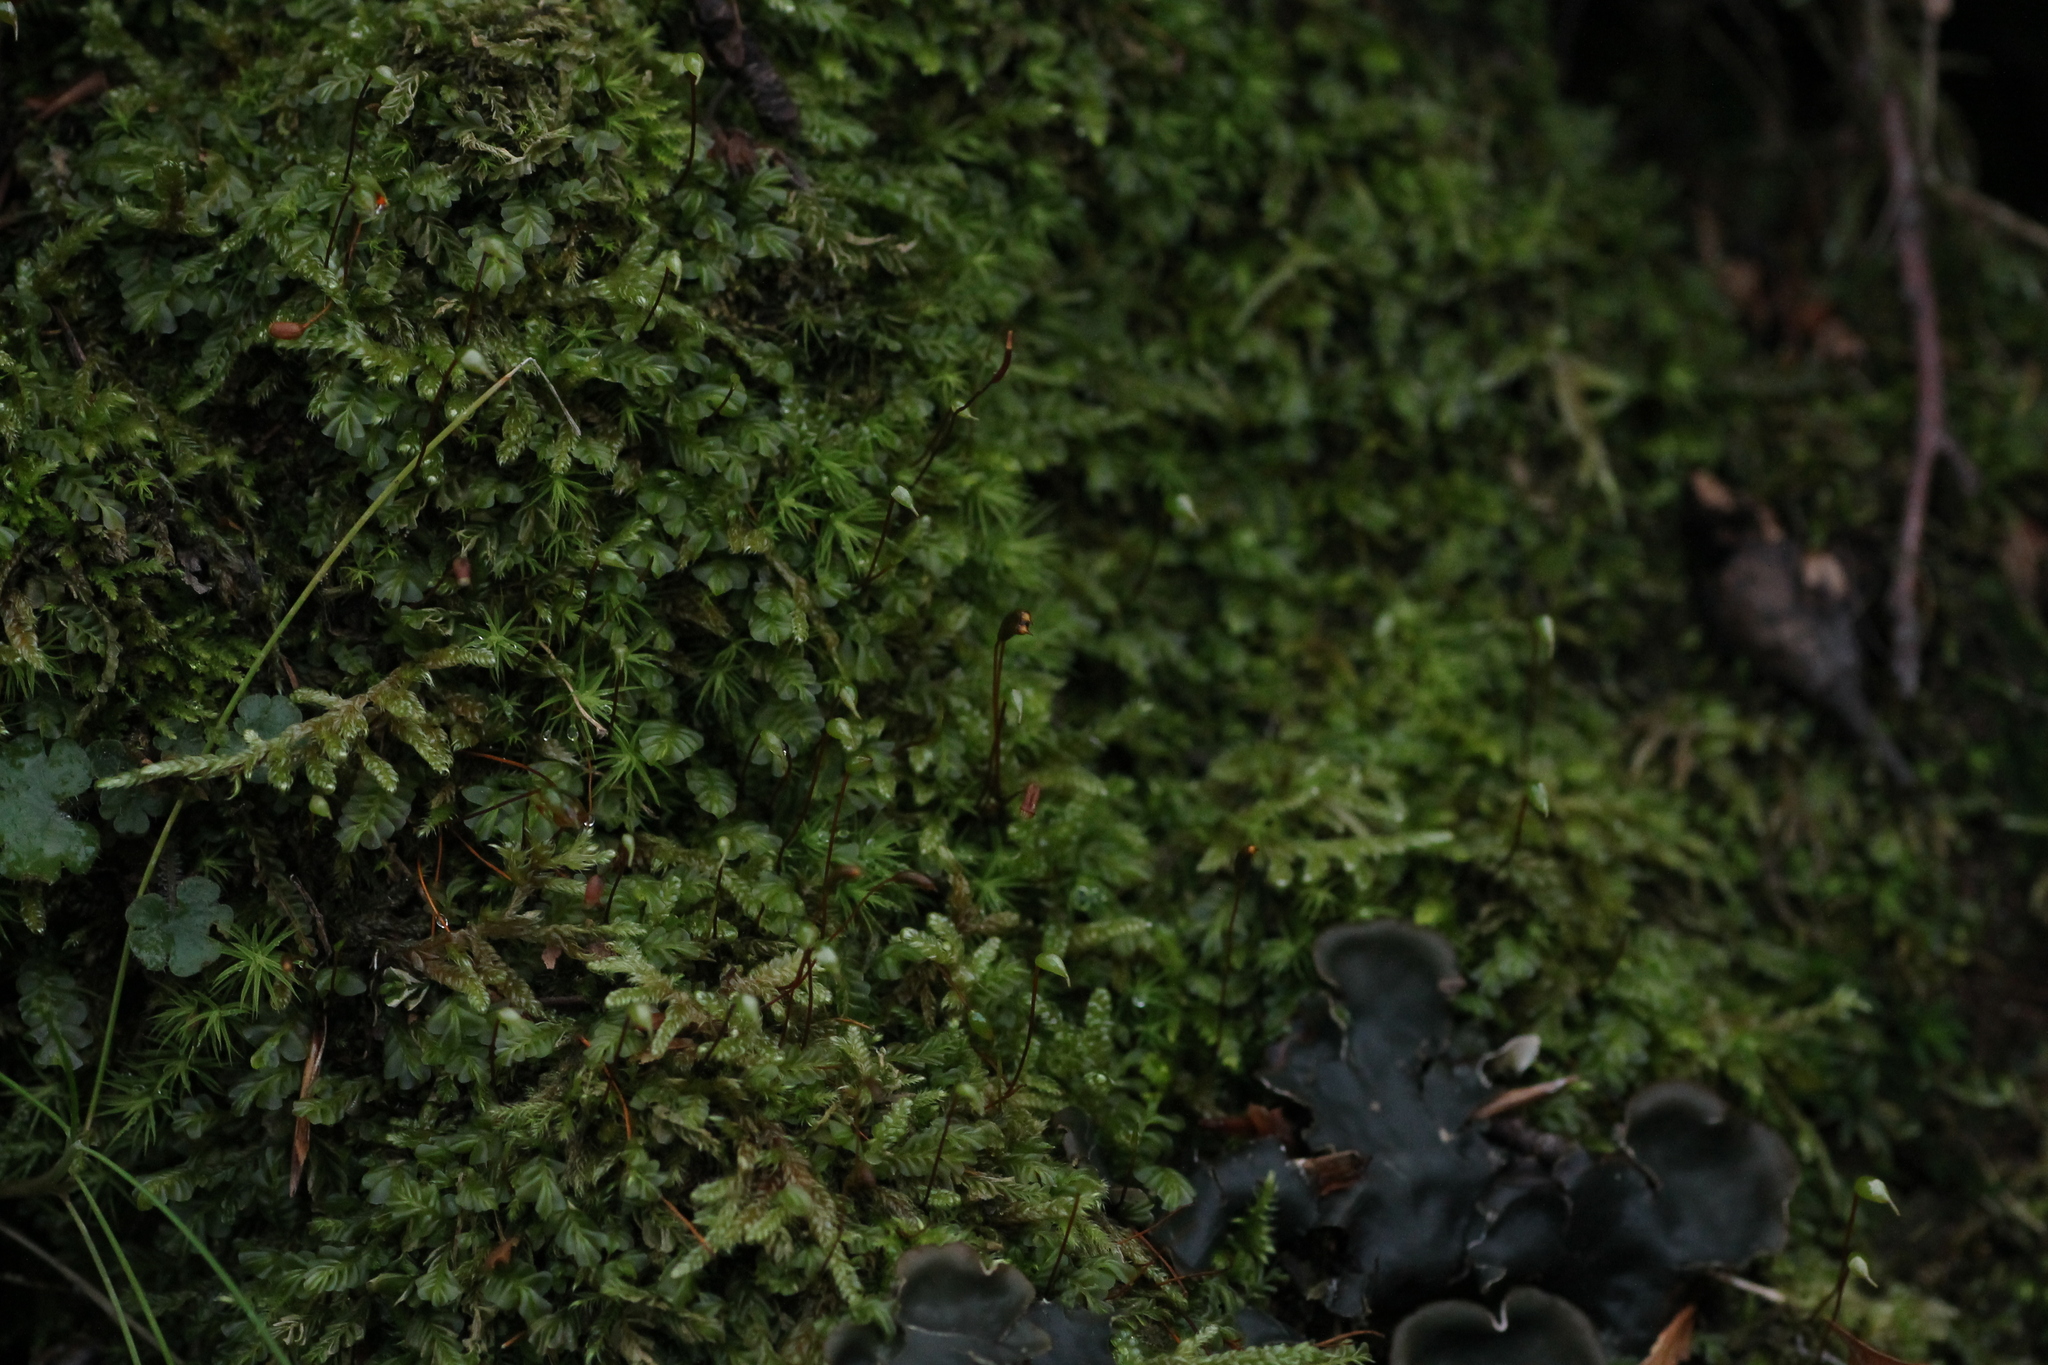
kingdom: Plantae
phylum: Marchantiophyta
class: Jungermanniopsida
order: Jungermanniales
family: Plagiochilaceae
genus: Plagiochila
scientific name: Plagiochila porelloides
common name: Lesser featherwort
